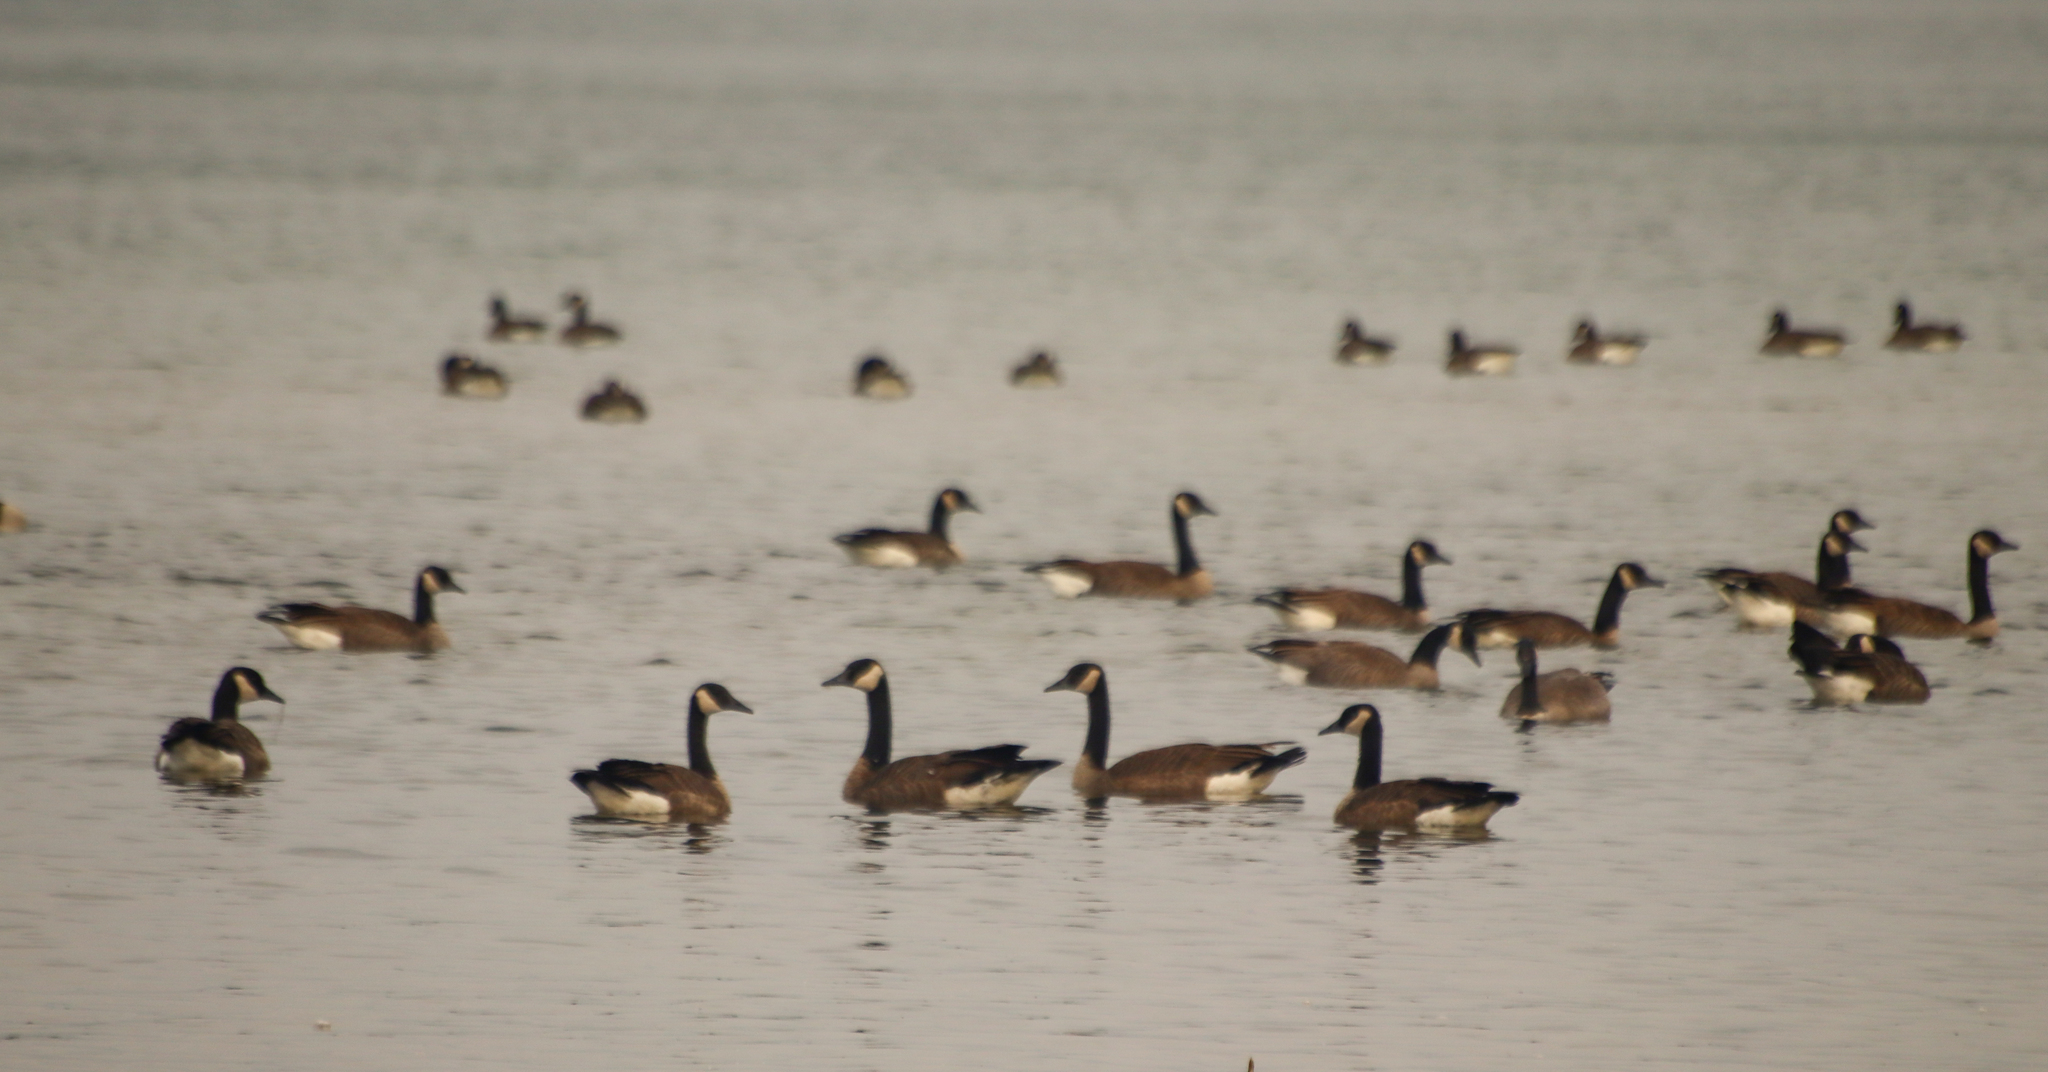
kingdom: Animalia
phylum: Chordata
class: Aves
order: Anseriformes
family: Anatidae
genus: Branta
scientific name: Branta canadensis
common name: Canada goose
